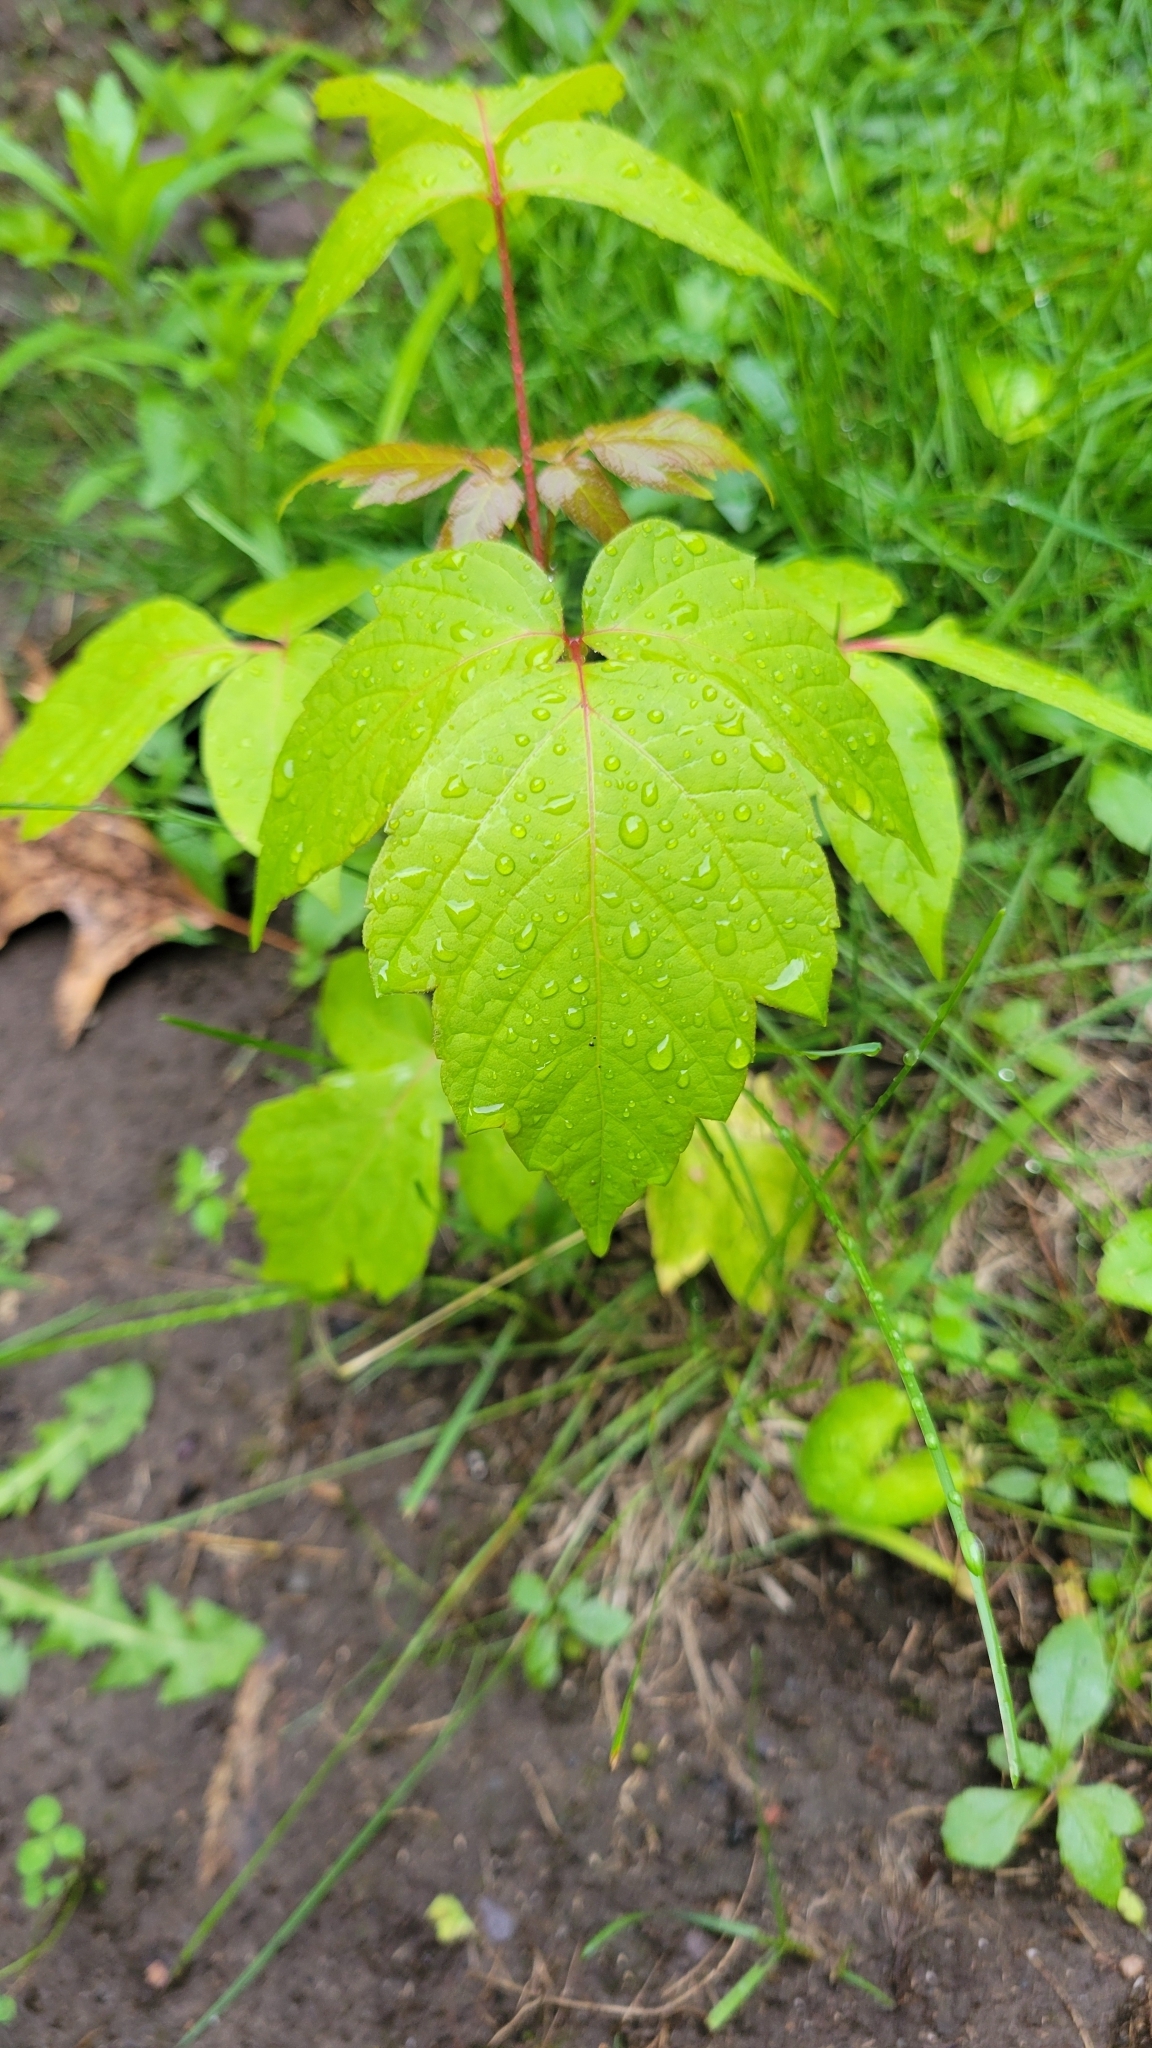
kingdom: Plantae
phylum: Tracheophyta
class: Magnoliopsida
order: Sapindales
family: Sapindaceae
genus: Acer
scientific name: Acer negundo
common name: Ashleaf maple
